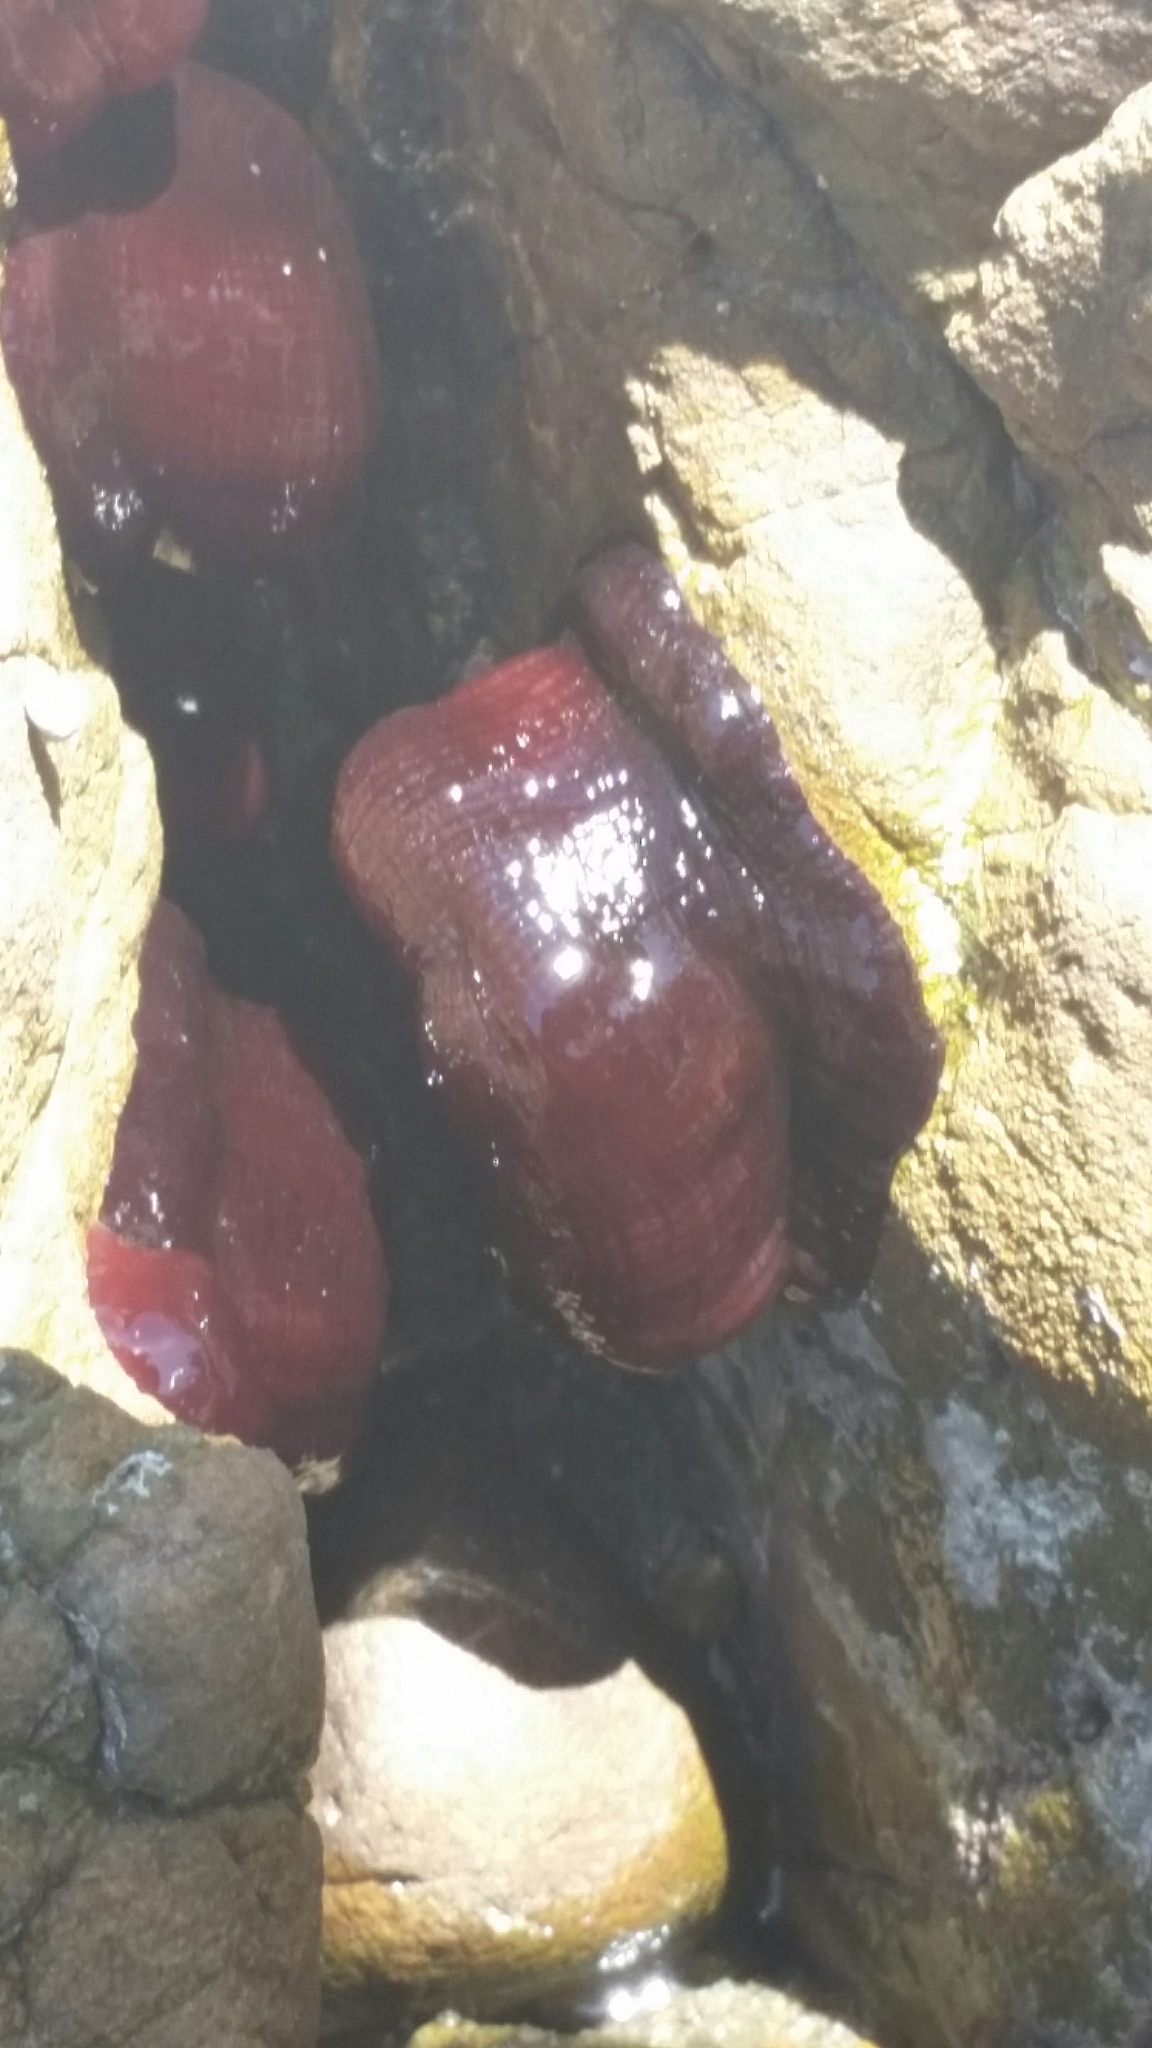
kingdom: Animalia
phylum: Cnidaria
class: Anthozoa
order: Actiniaria
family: Actiniidae
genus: Actinia
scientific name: Actinia tenebrosa
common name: Waratah anemone
